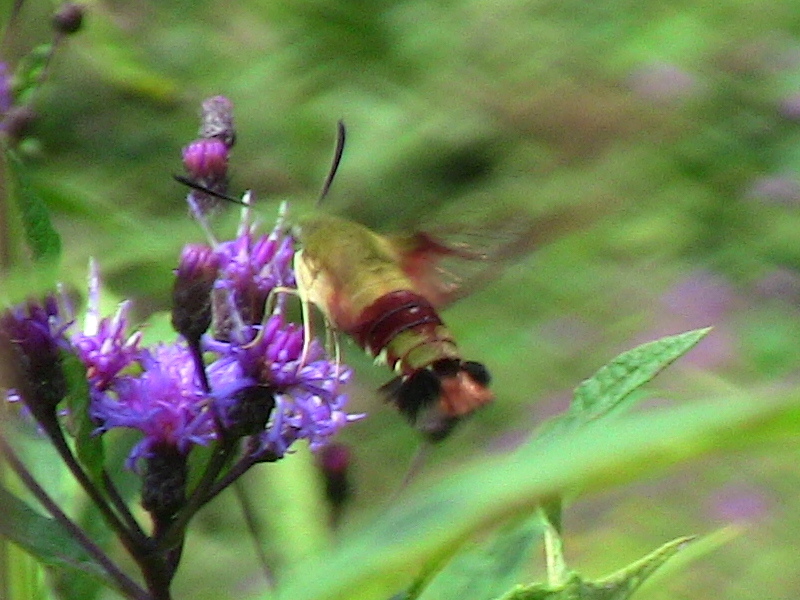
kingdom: Animalia
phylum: Arthropoda
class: Insecta
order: Lepidoptera
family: Sphingidae
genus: Hemaris
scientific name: Hemaris thysbe
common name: Common clear-wing
